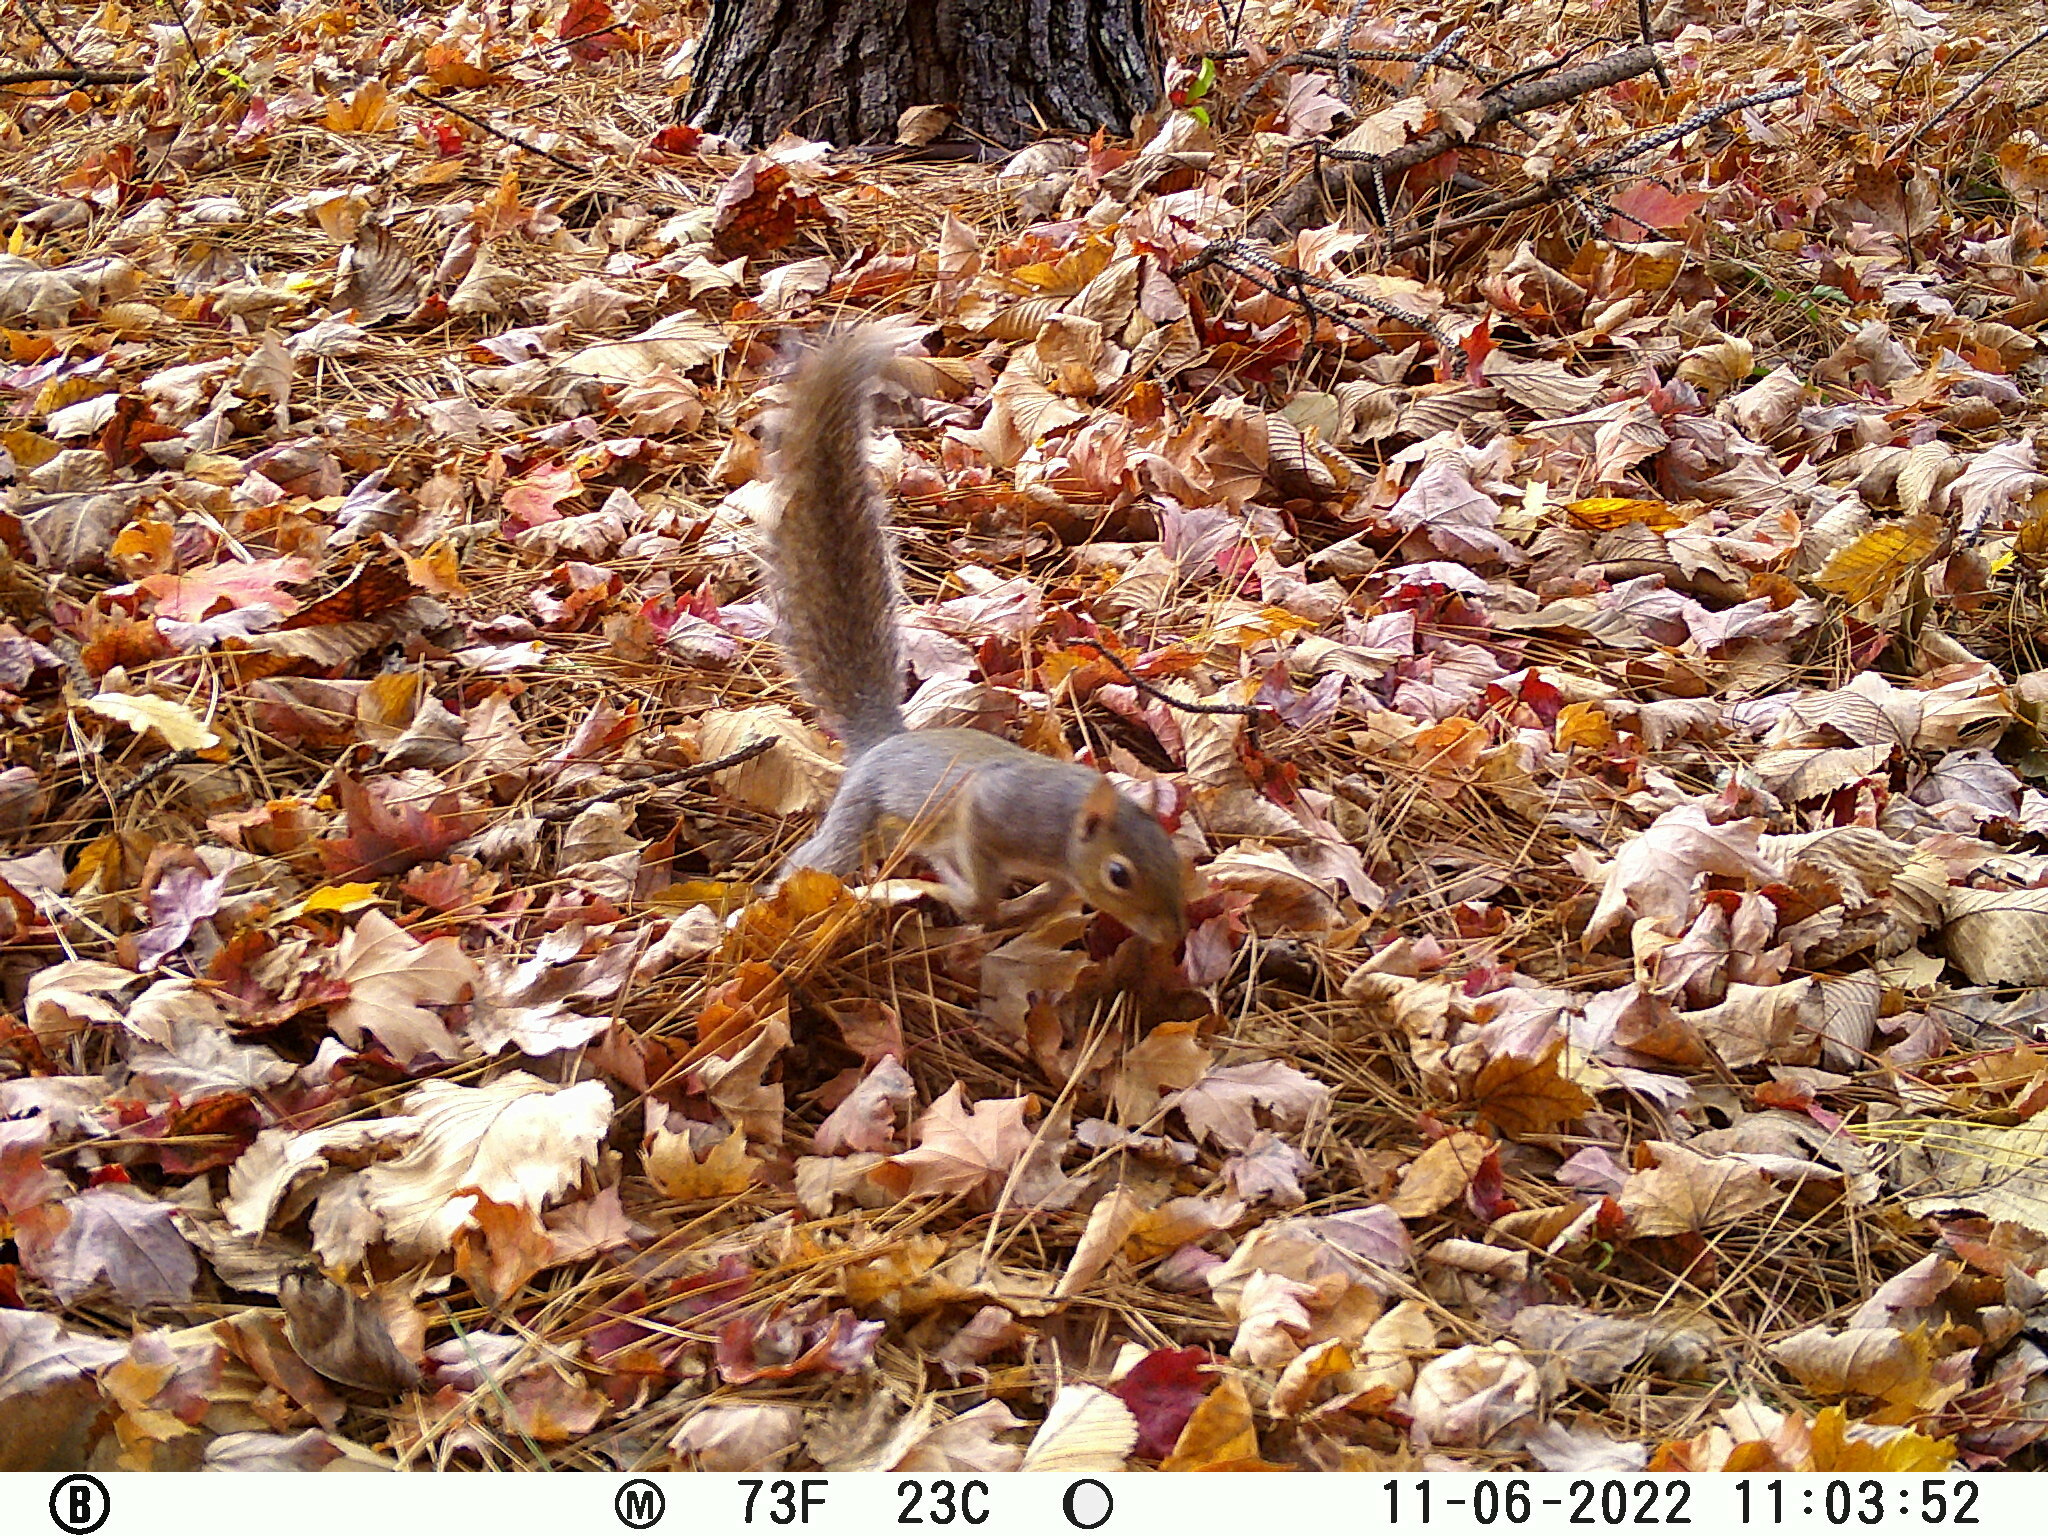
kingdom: Animalia
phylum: Chordata
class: Mammalia
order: Rodentia
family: Sciuridae
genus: Sciurus
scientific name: Sciurus carolinensis
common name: Eastern gray squirrel
